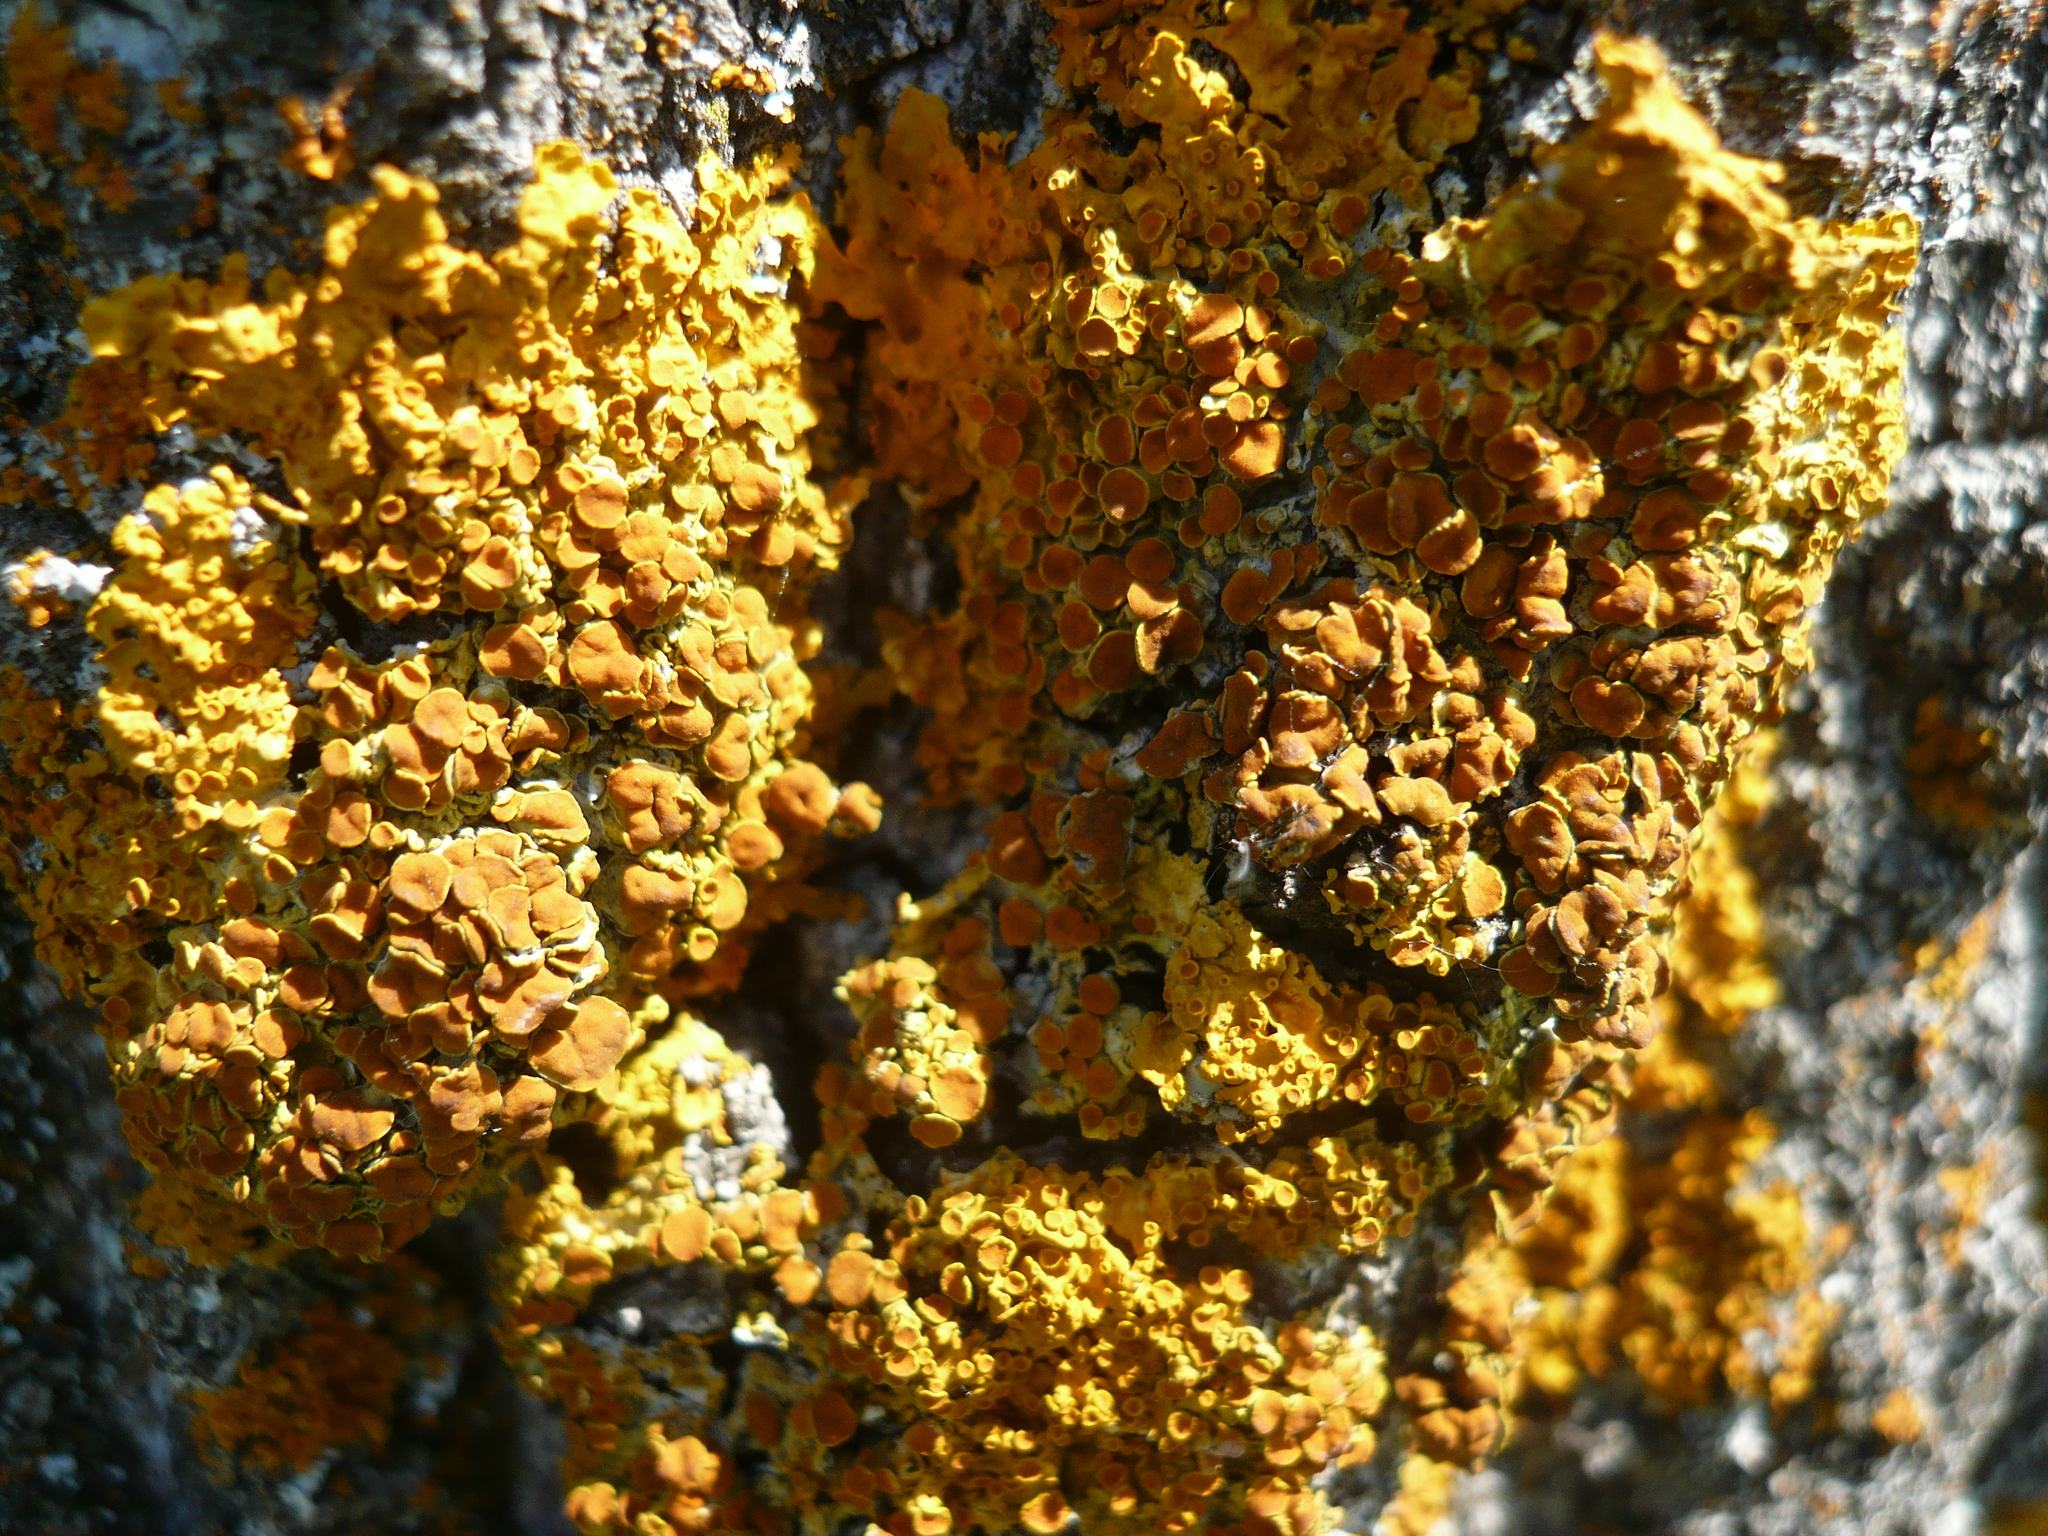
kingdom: Fungi
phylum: Ascomycota
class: Lecanoromycetes
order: Teloschistales
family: Teloschistaceae
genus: Xanthoria
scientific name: Xanthoria parietina
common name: Common orange lichen
